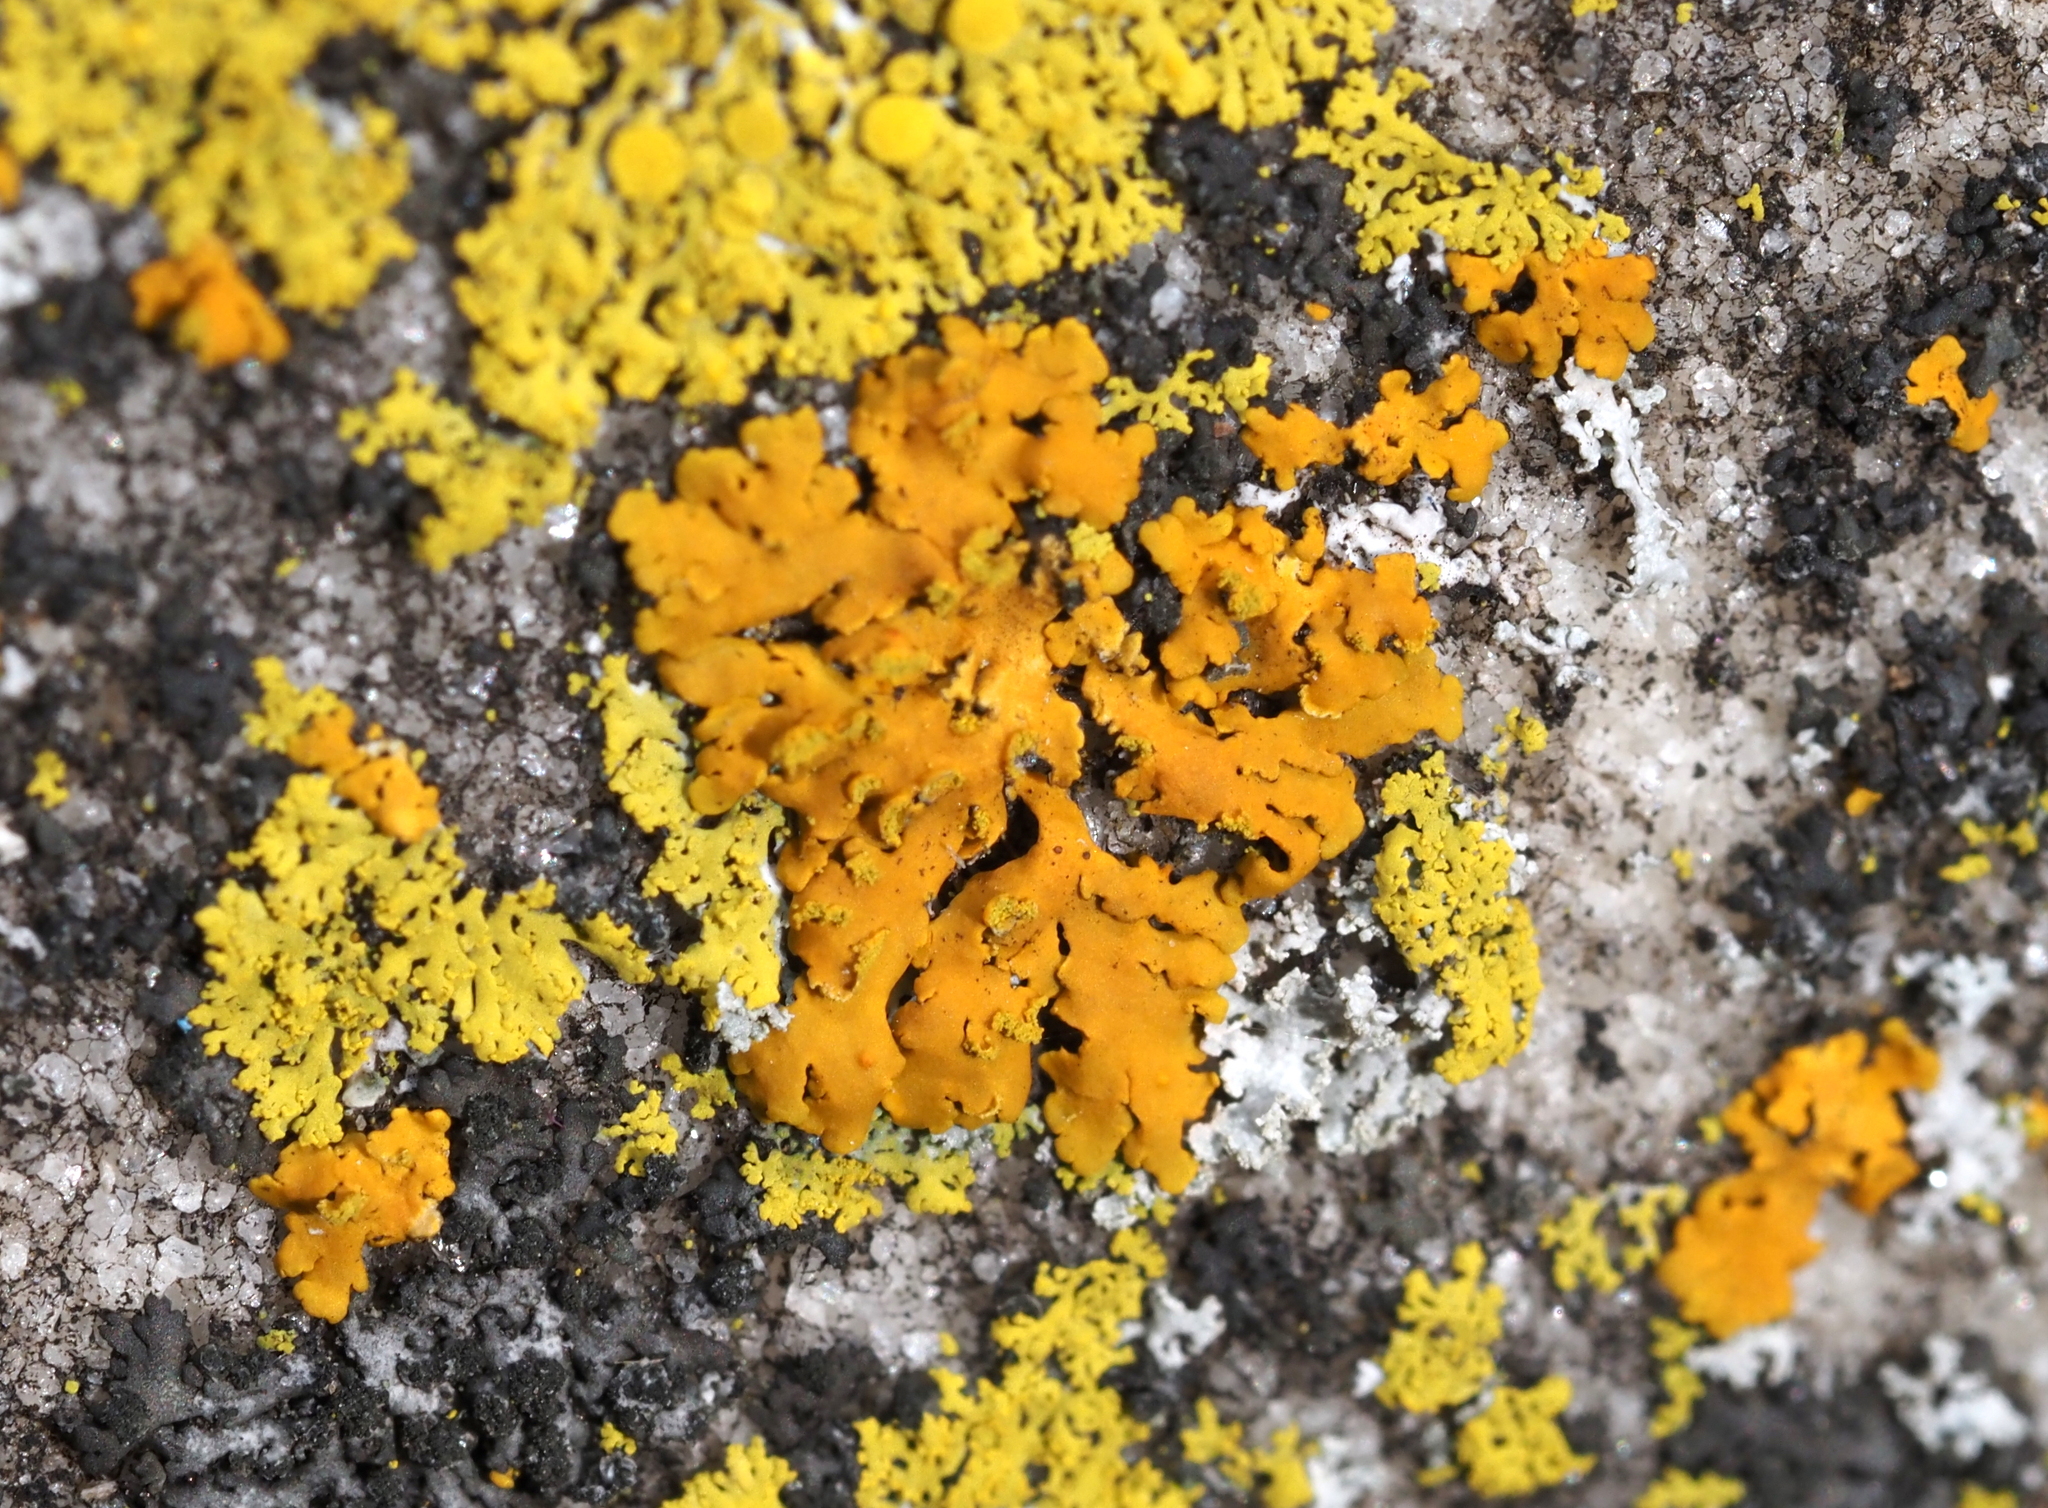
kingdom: Fungi
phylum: Ascomycota
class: Lecanoromycetes
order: Teloschistales
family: Teloschistaceae
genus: Oxneria
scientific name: Oxneria fallax
